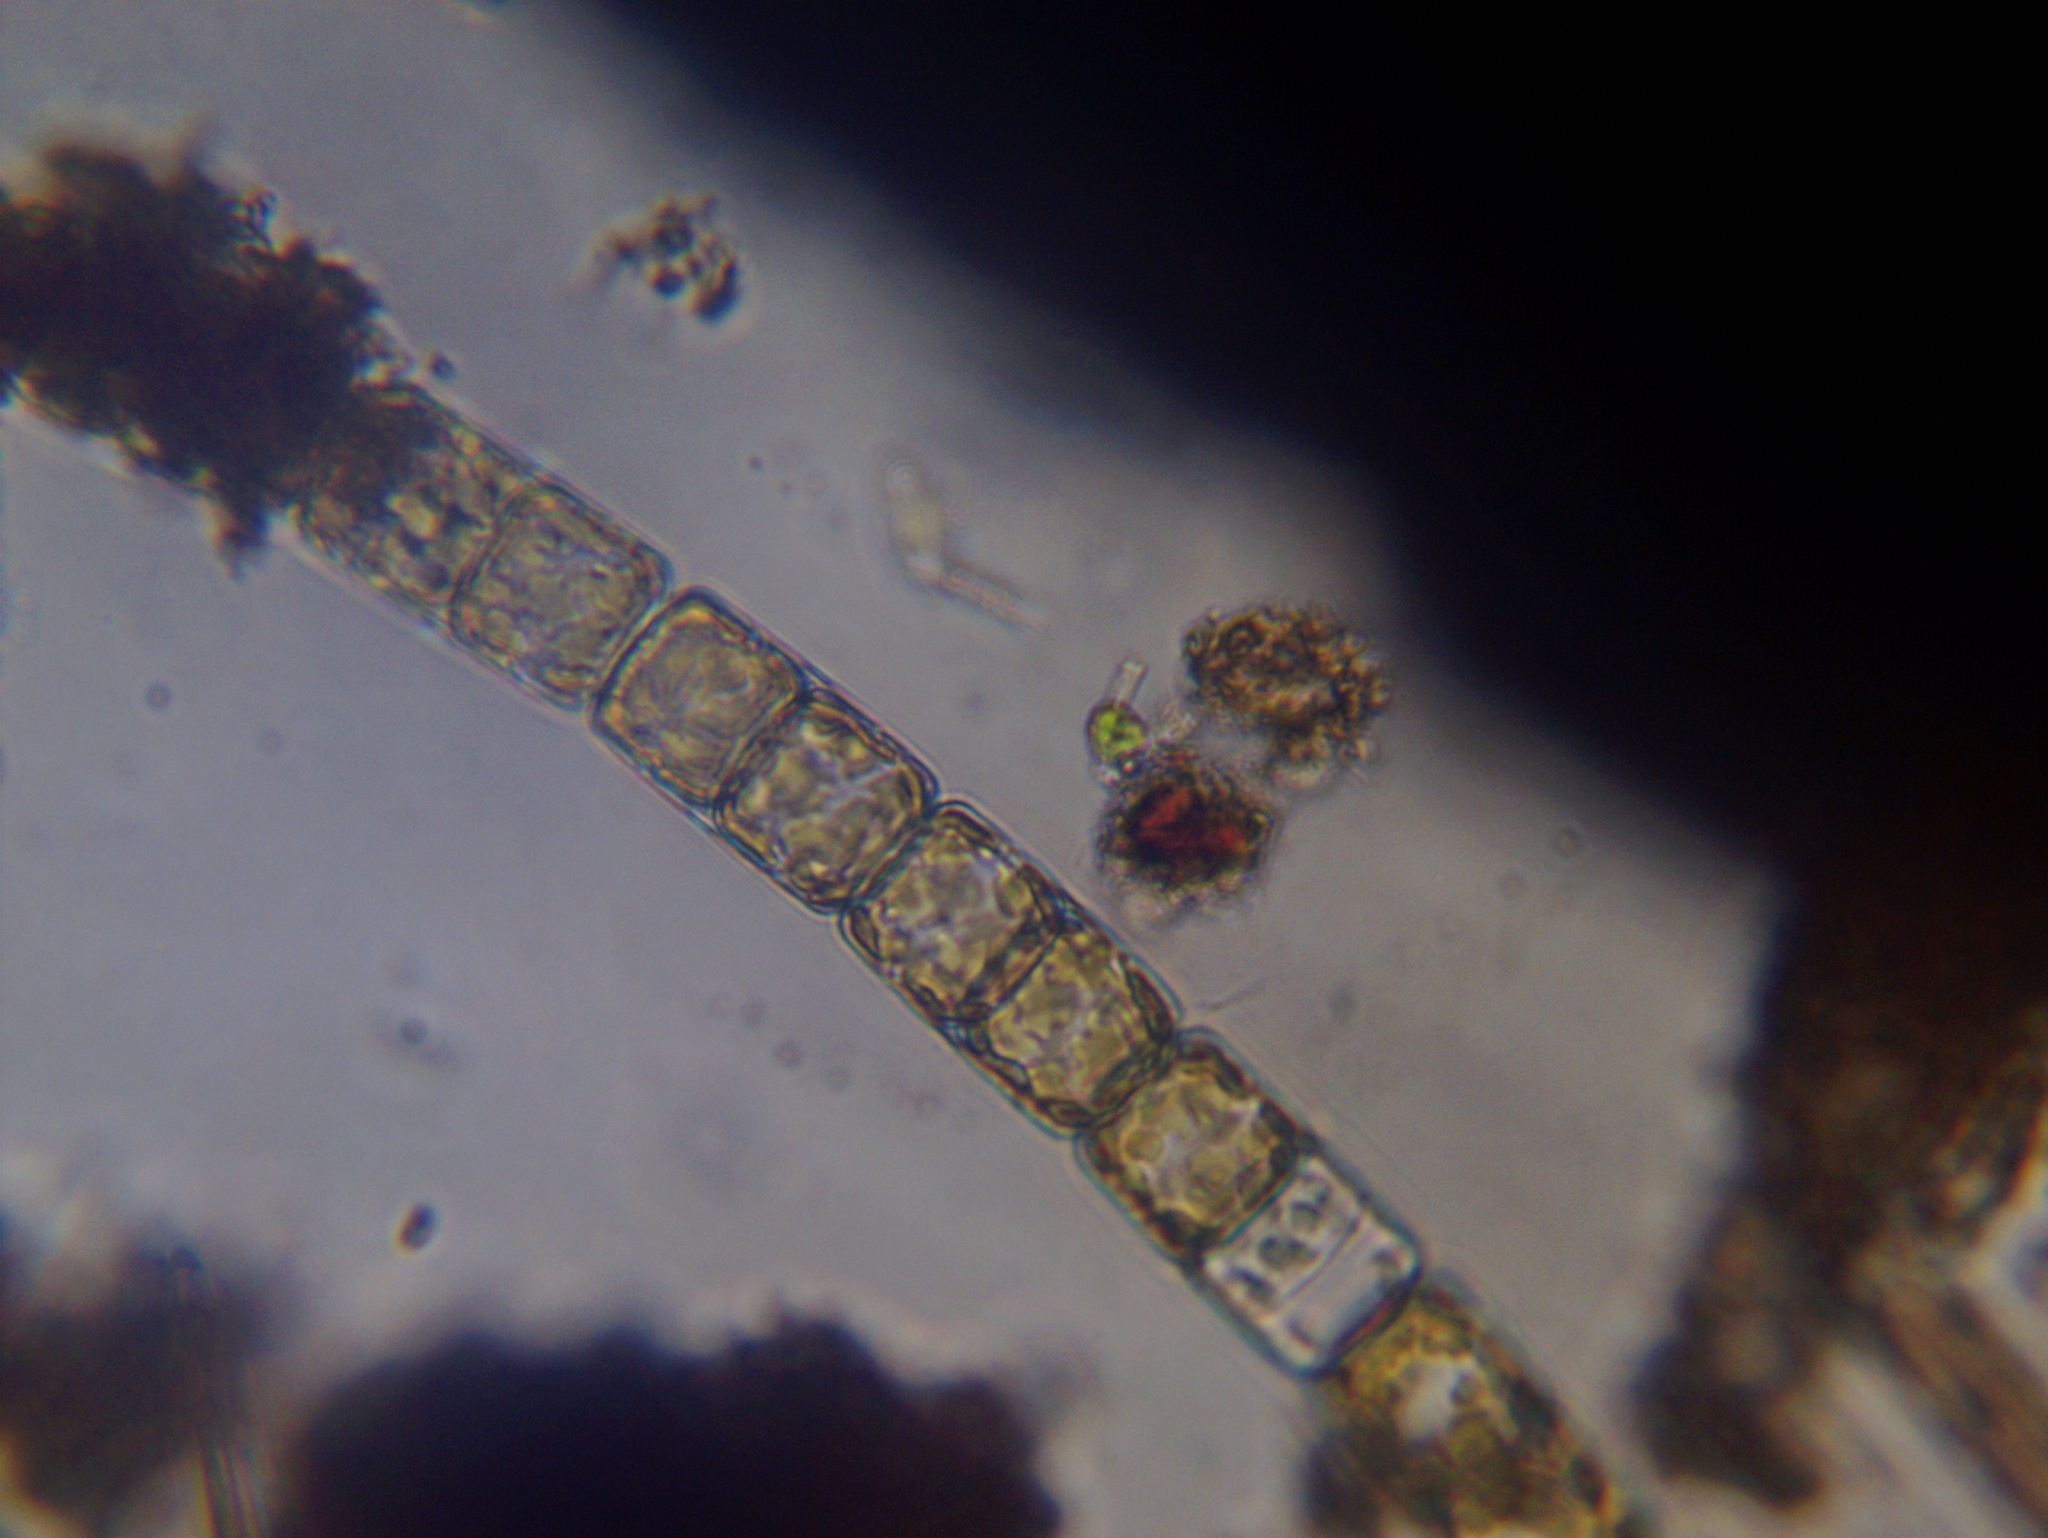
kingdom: Chromista
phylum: Ochrophyta
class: Bacillariophyceae
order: Melosirales
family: Melosiraceae
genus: Melosira
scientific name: Melosira varians
